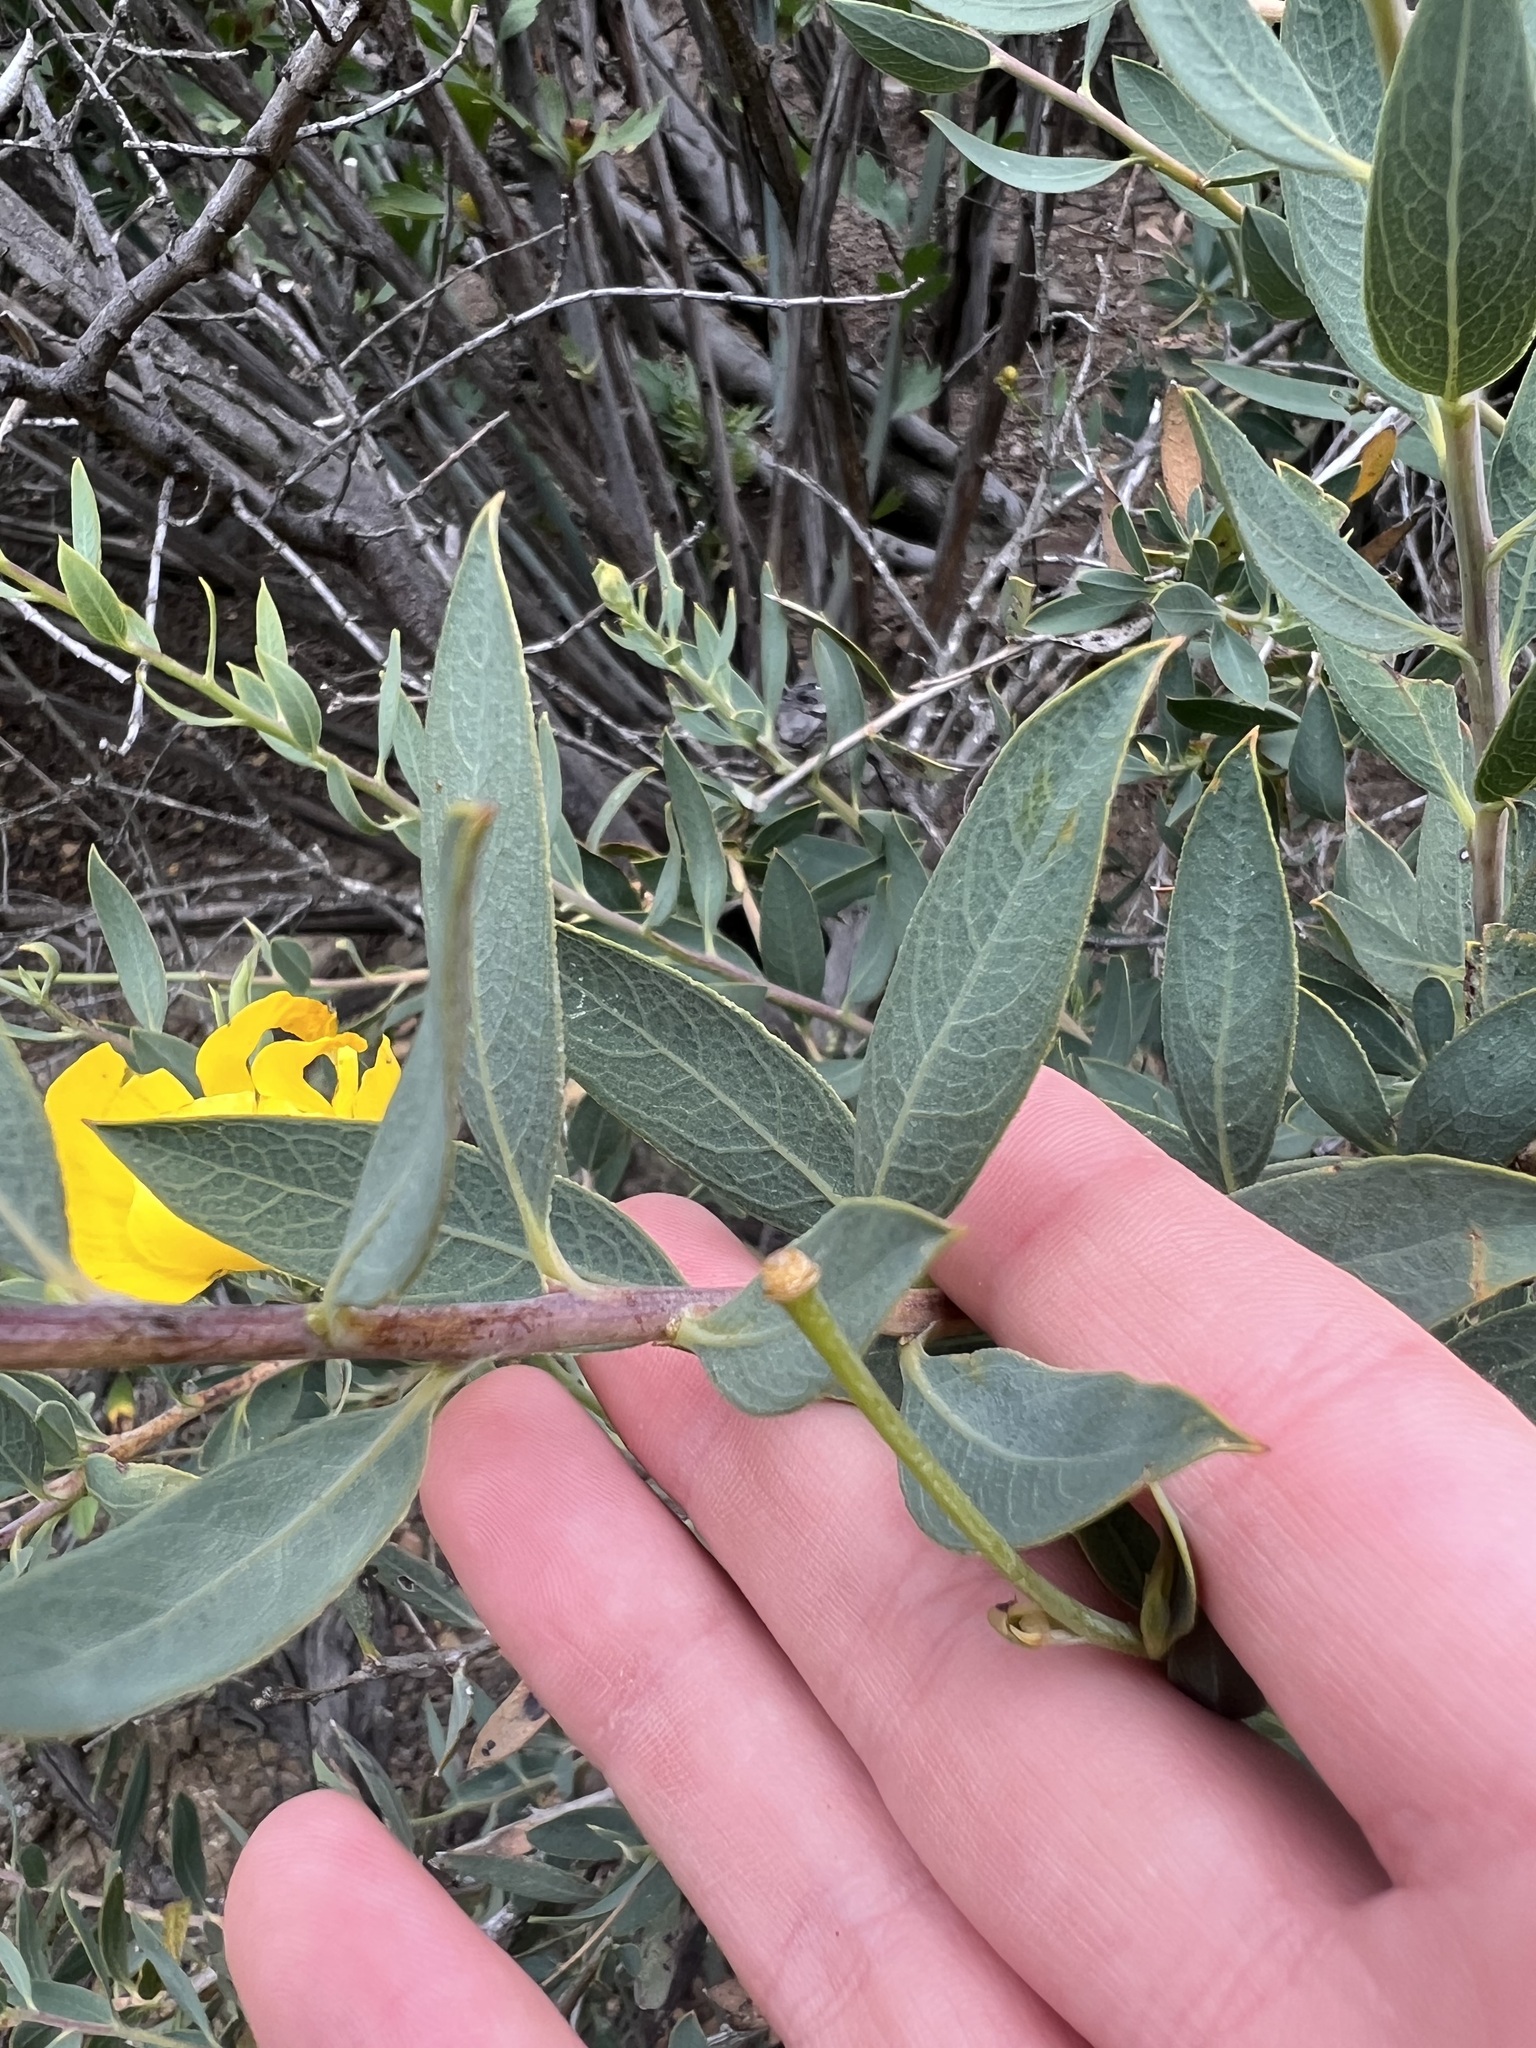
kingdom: Plantae
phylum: Tracheophyta
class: Magnoliopsida
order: Ranunculales
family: Papaveraceae
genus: Dendromecon
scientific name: Dendromecon rigida
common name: Tree poppy
